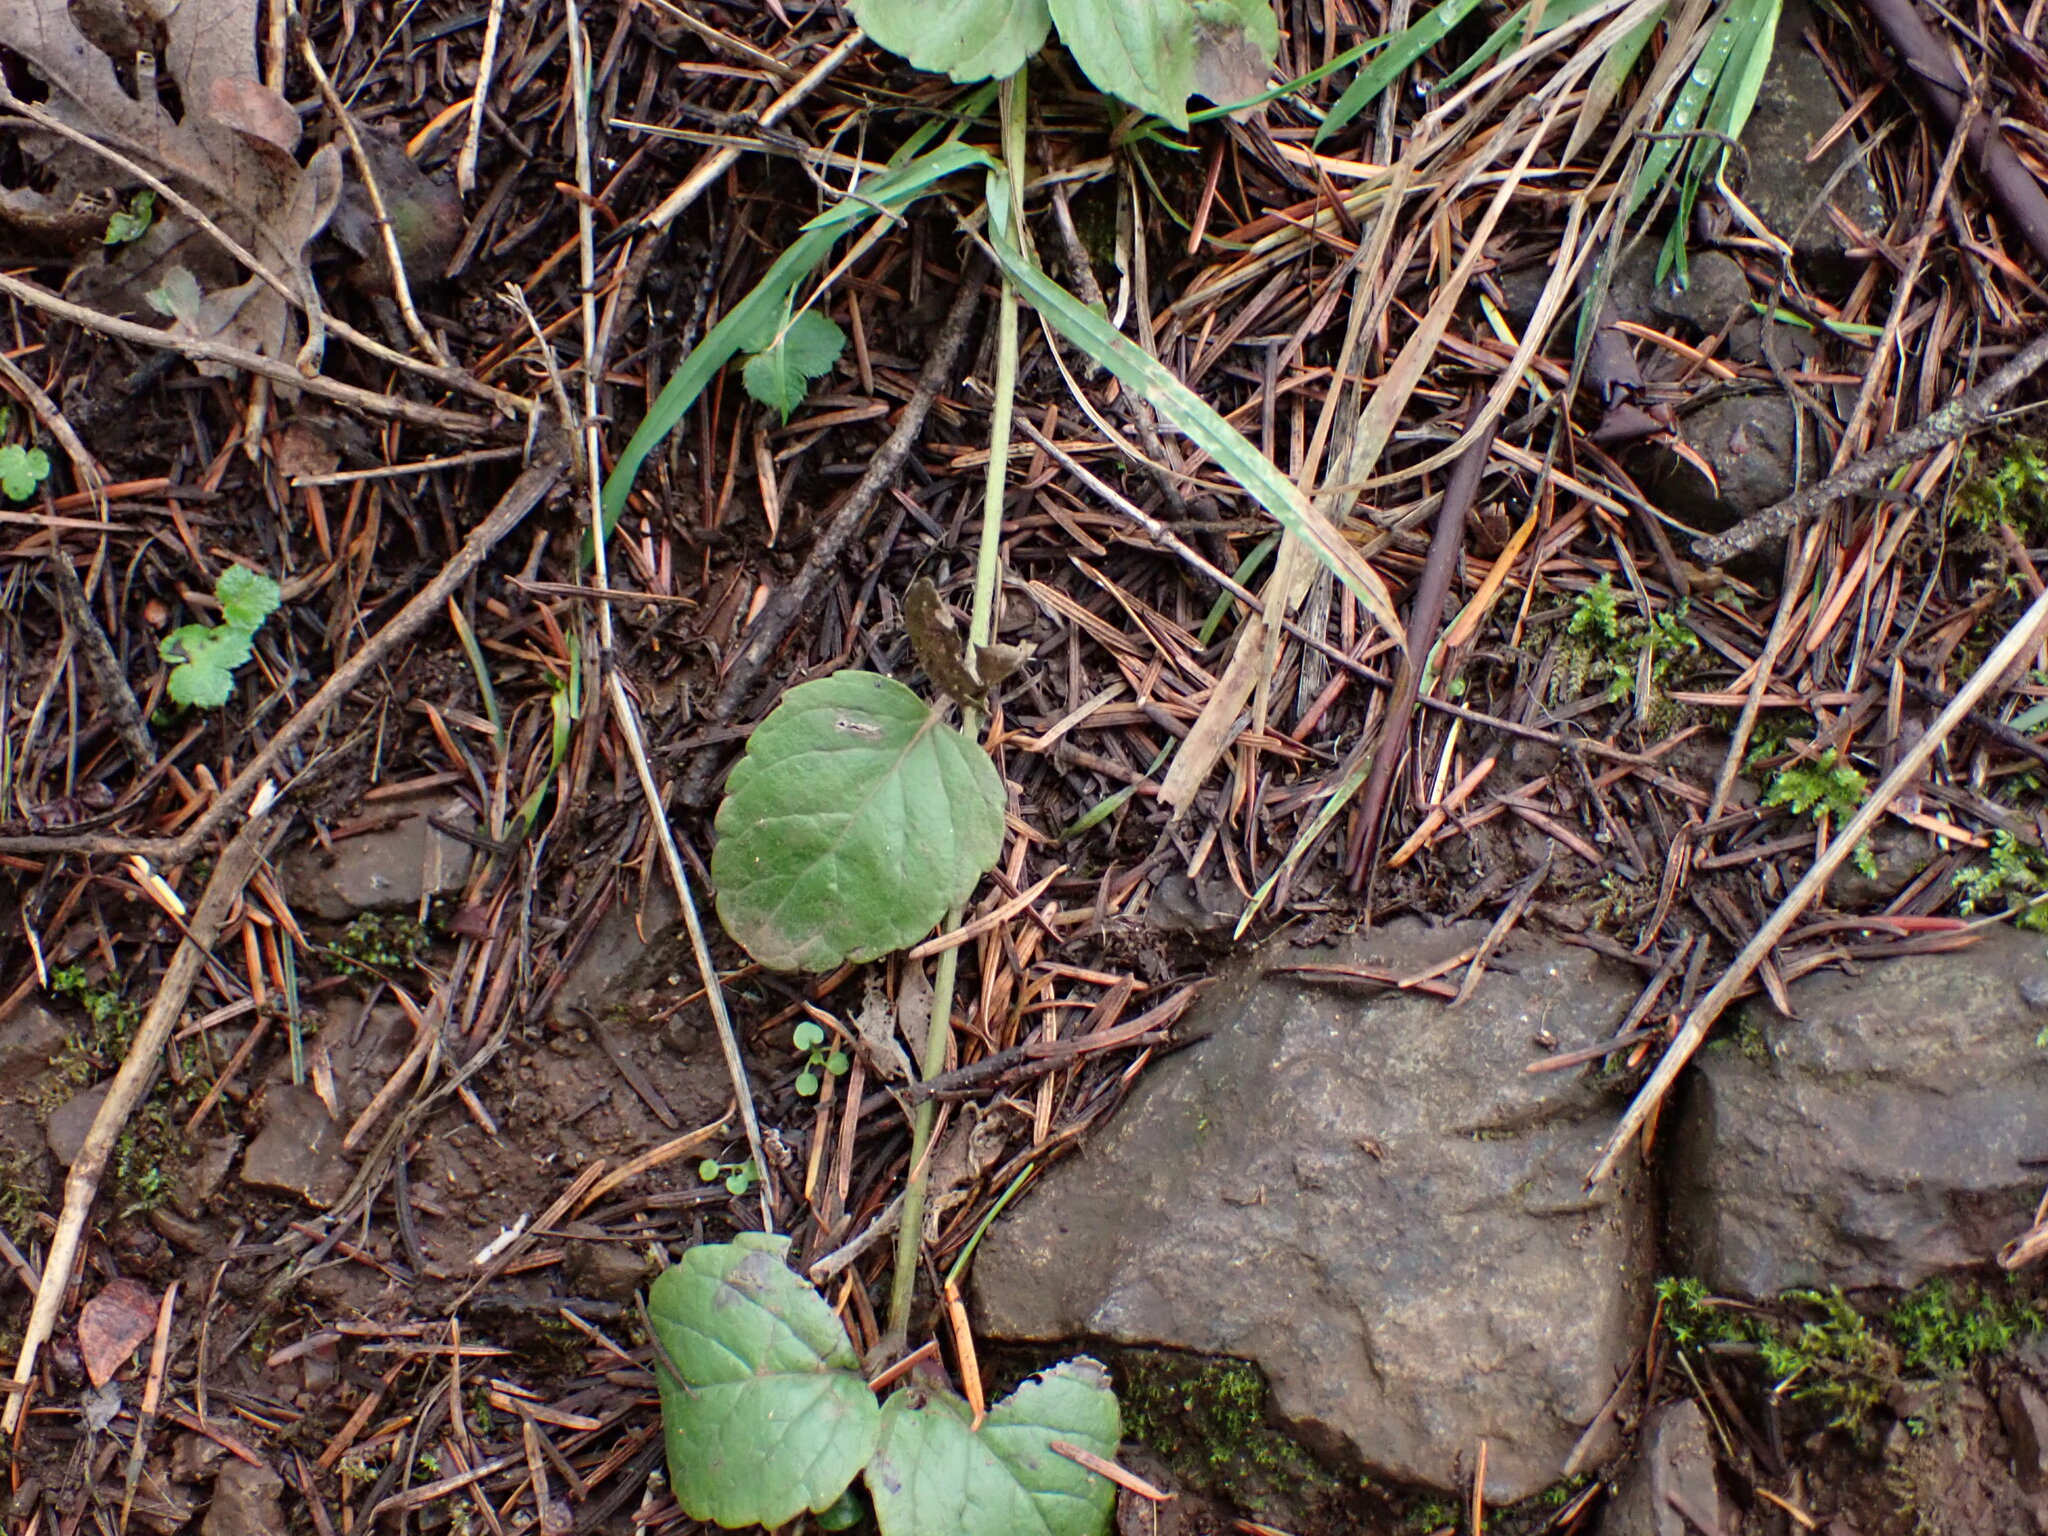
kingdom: Plantae
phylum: Tracheophyta
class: Magnoliopsida
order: Lamiales
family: Lamiaceae
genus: Micromeria
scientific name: Micromeria douglasii
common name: Yerba buena
